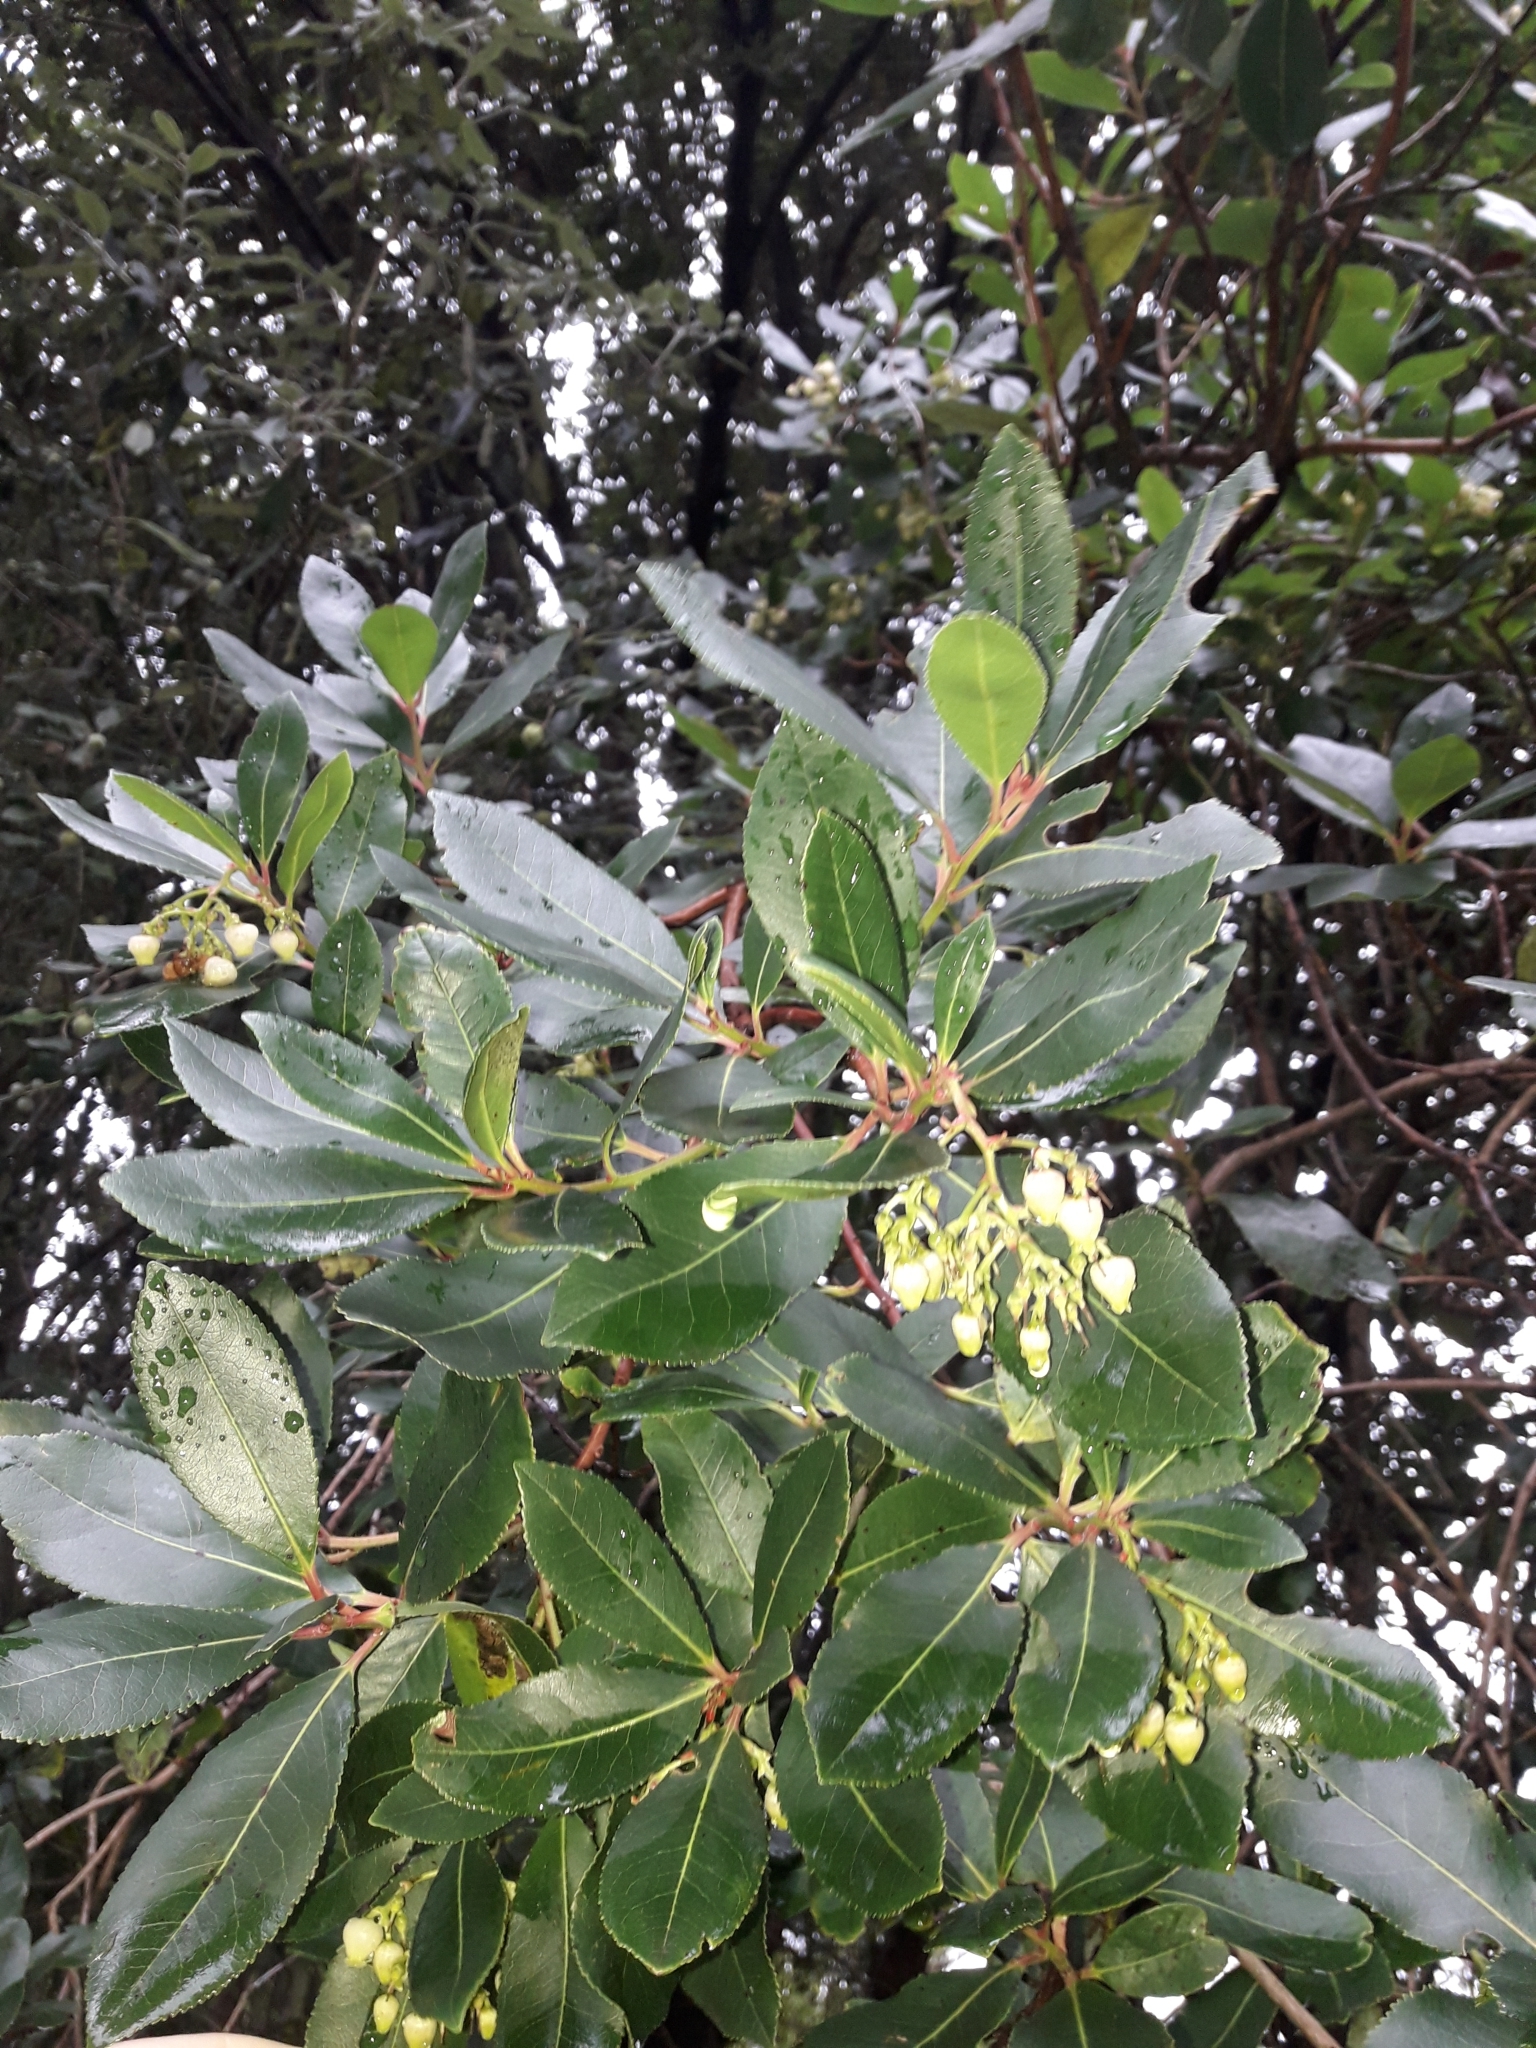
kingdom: Plantae
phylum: Tracheophyta
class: Magnoliopsida
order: Ericales
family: Ericaceae
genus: Arbutus
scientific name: Arbutus unedo
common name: Strawberry-tree
